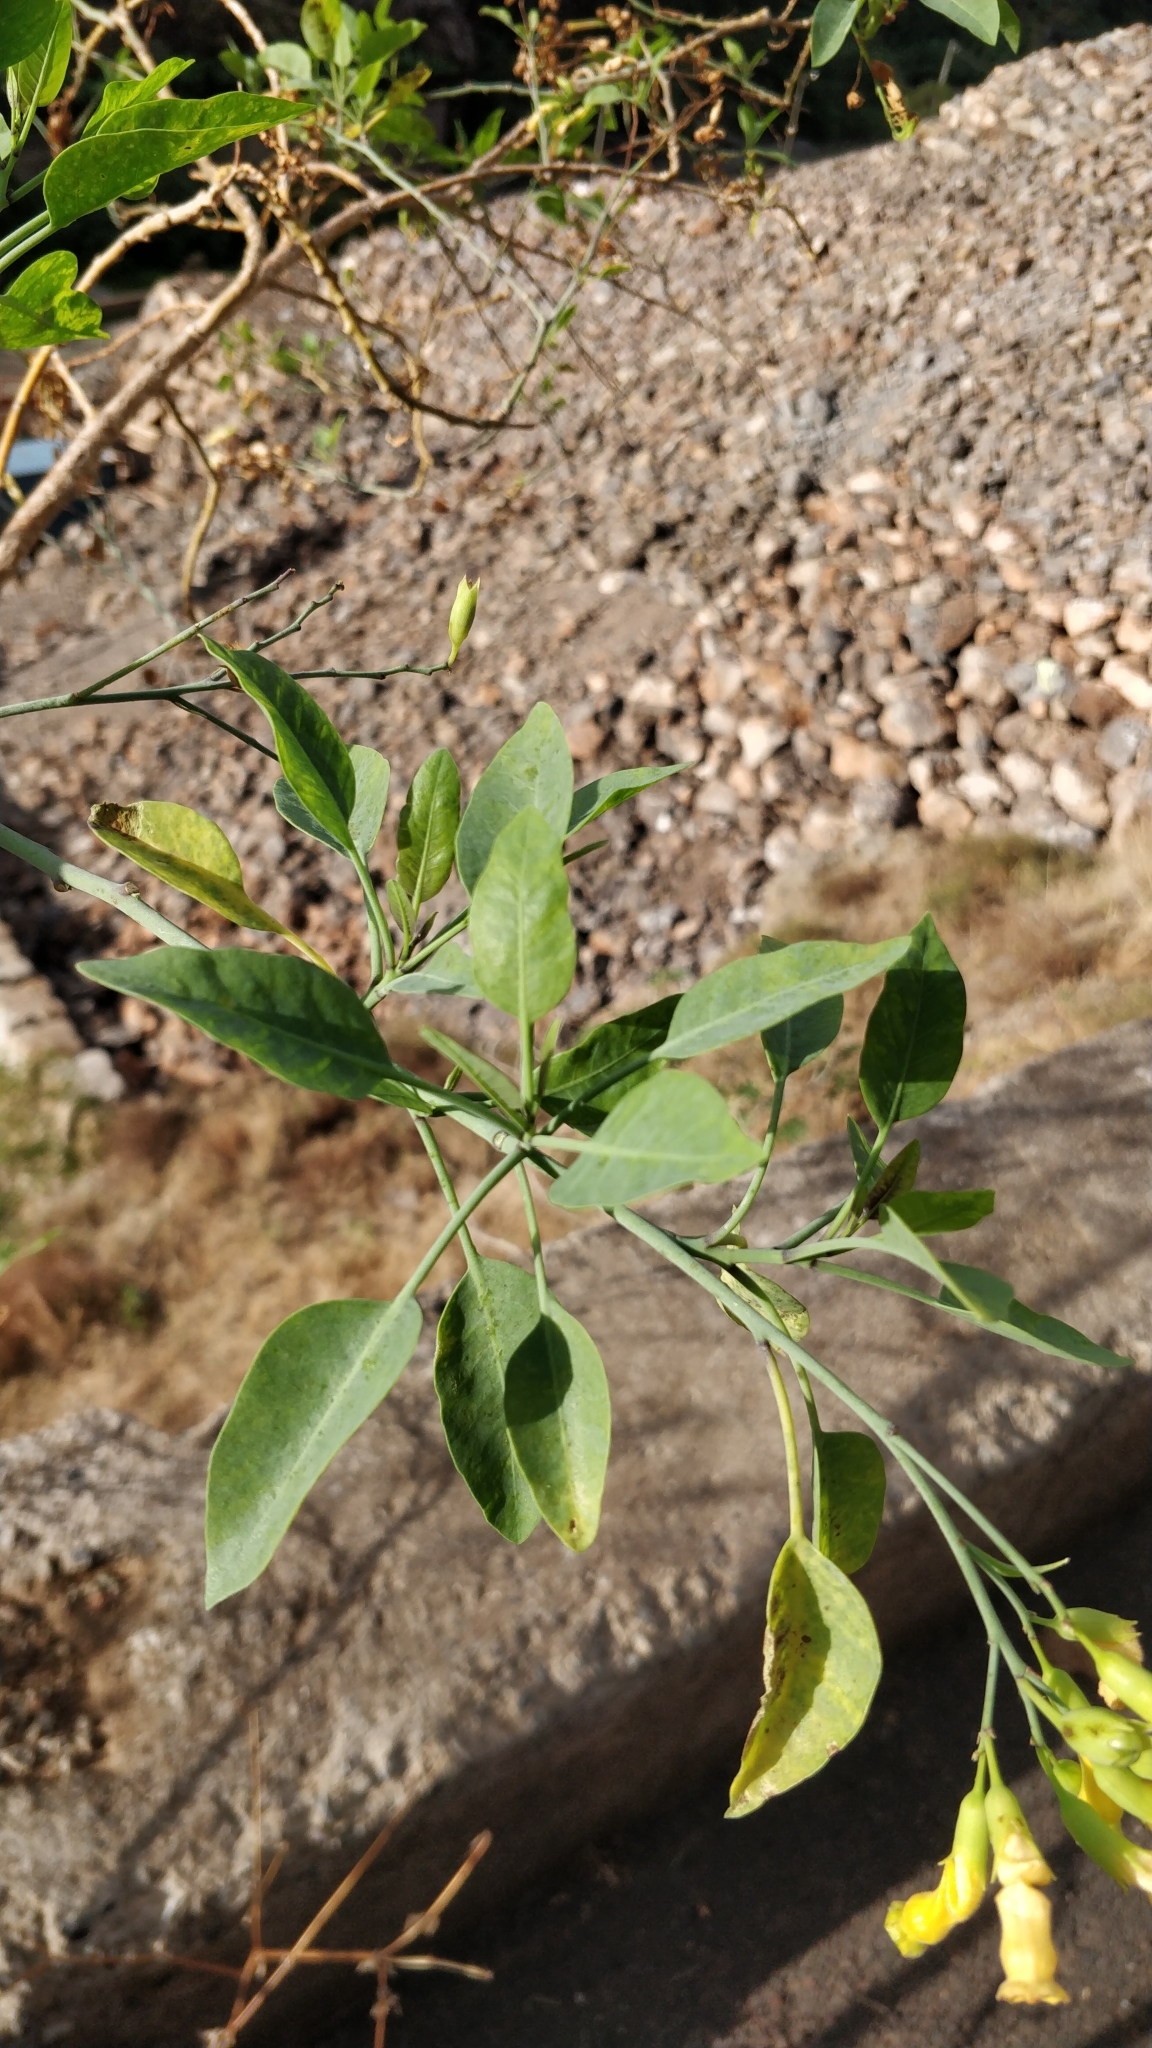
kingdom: Plantae
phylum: Tracheophyta
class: Magnoliopsida
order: Solanales
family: Solanaceae
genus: Nicotiana
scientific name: Nicotiana glauca
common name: Tree tobacco
